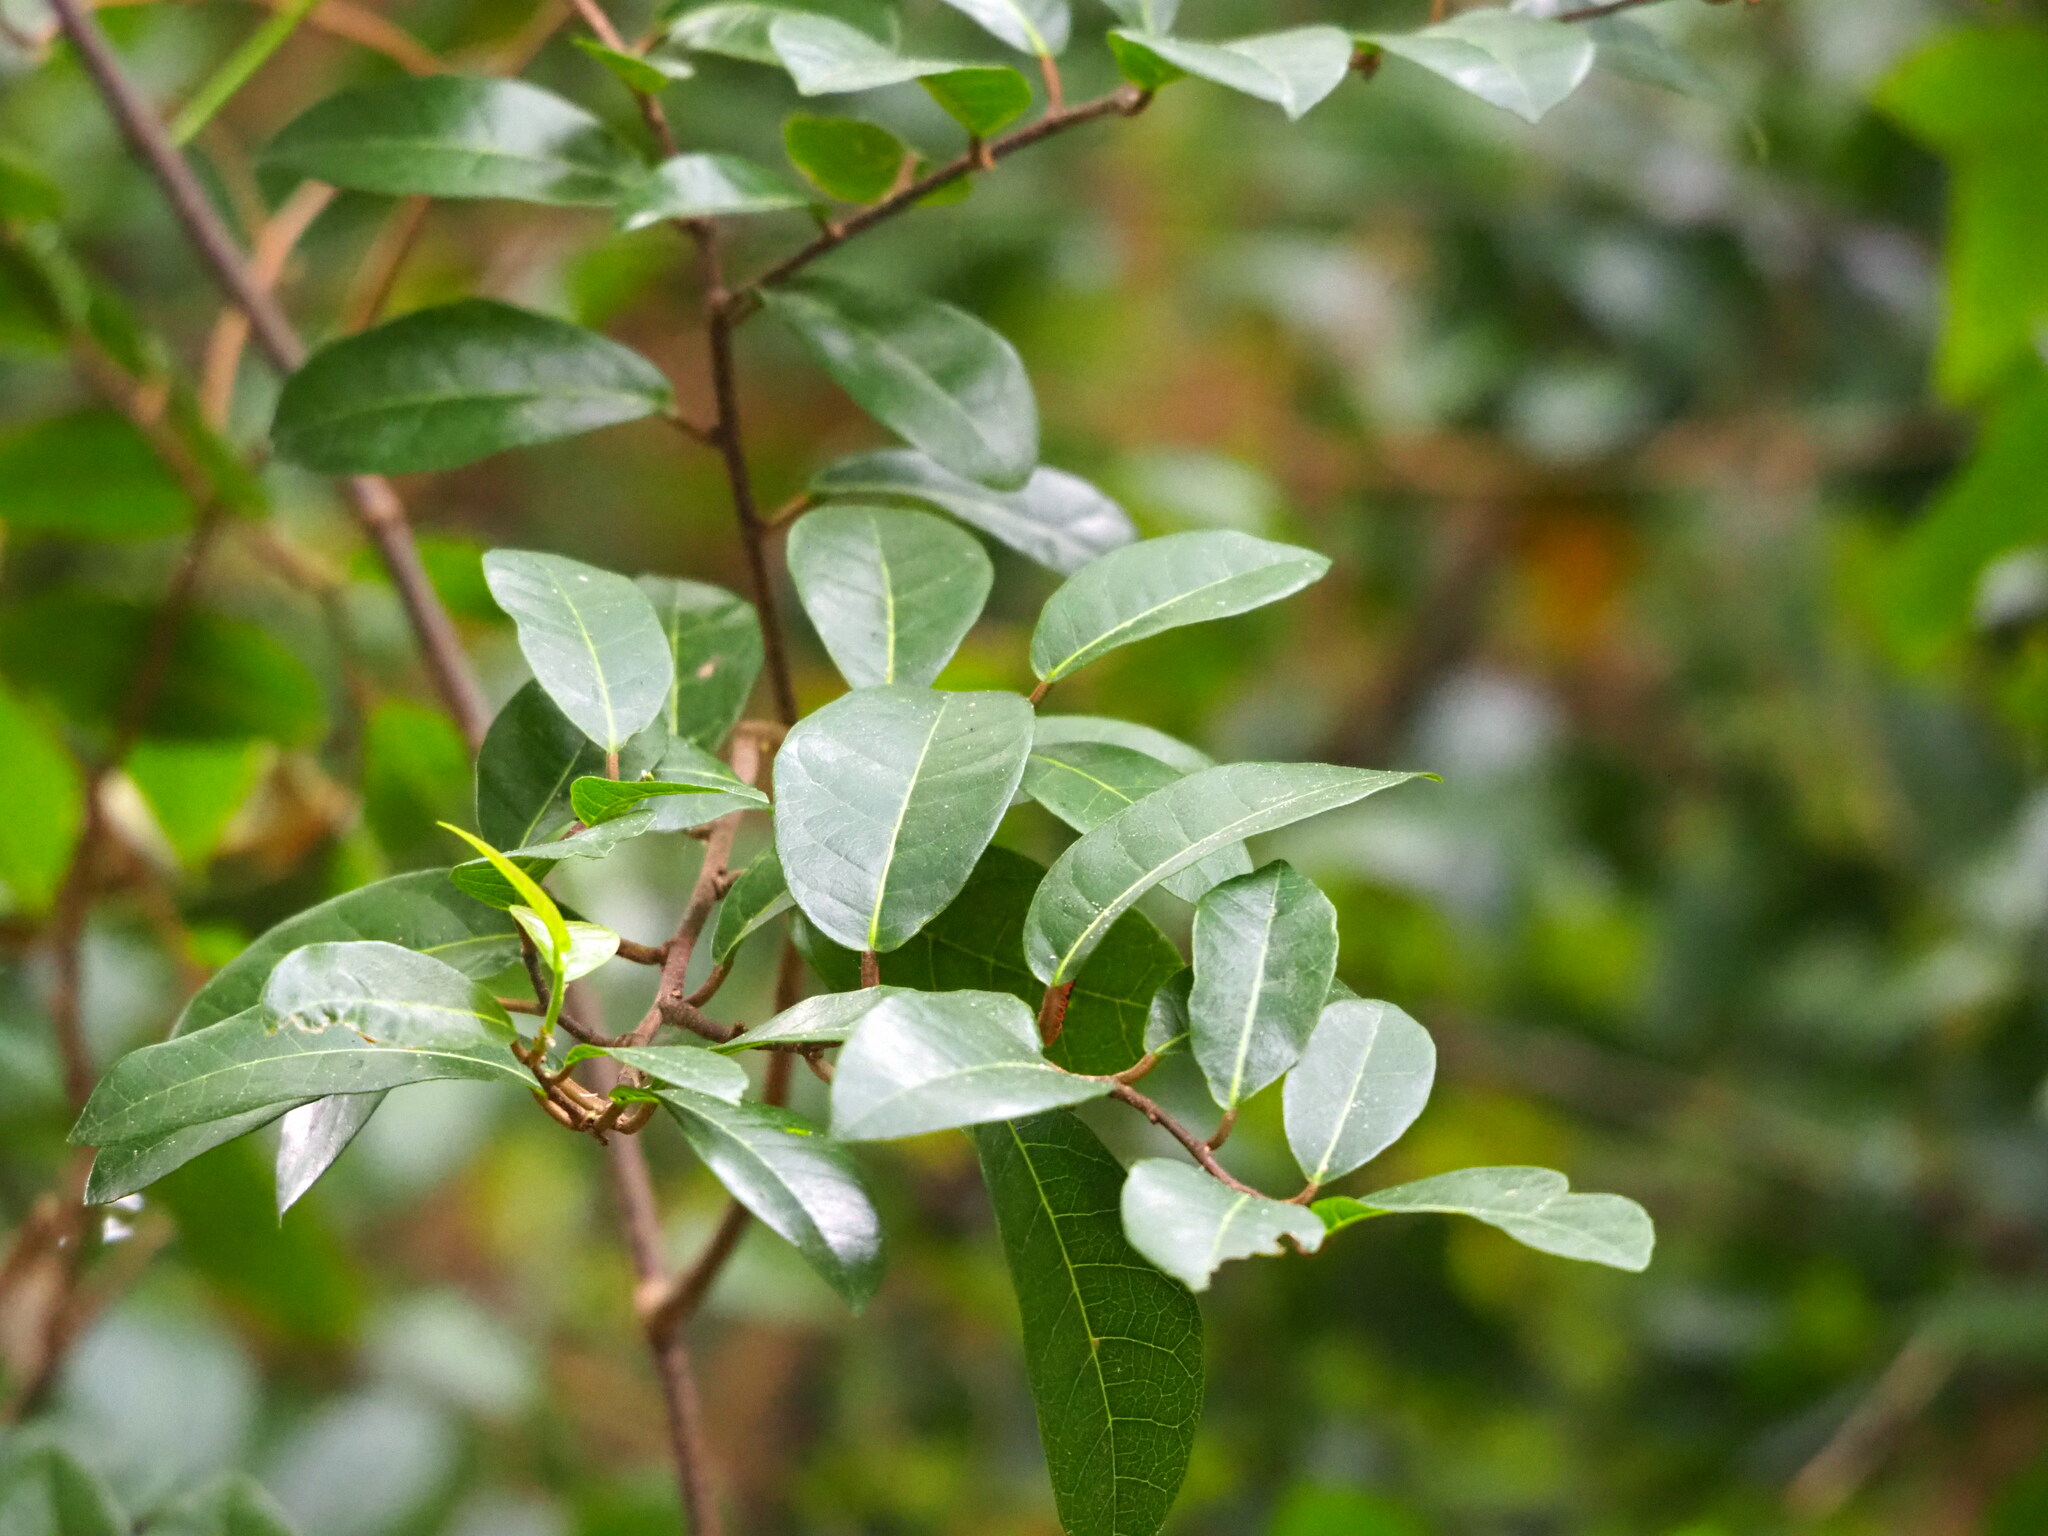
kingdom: Plantae
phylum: Tracheophyta
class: Magnoliopsida
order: Rosales
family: Moraceae
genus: Malaisia
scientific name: Malaisia scandens
